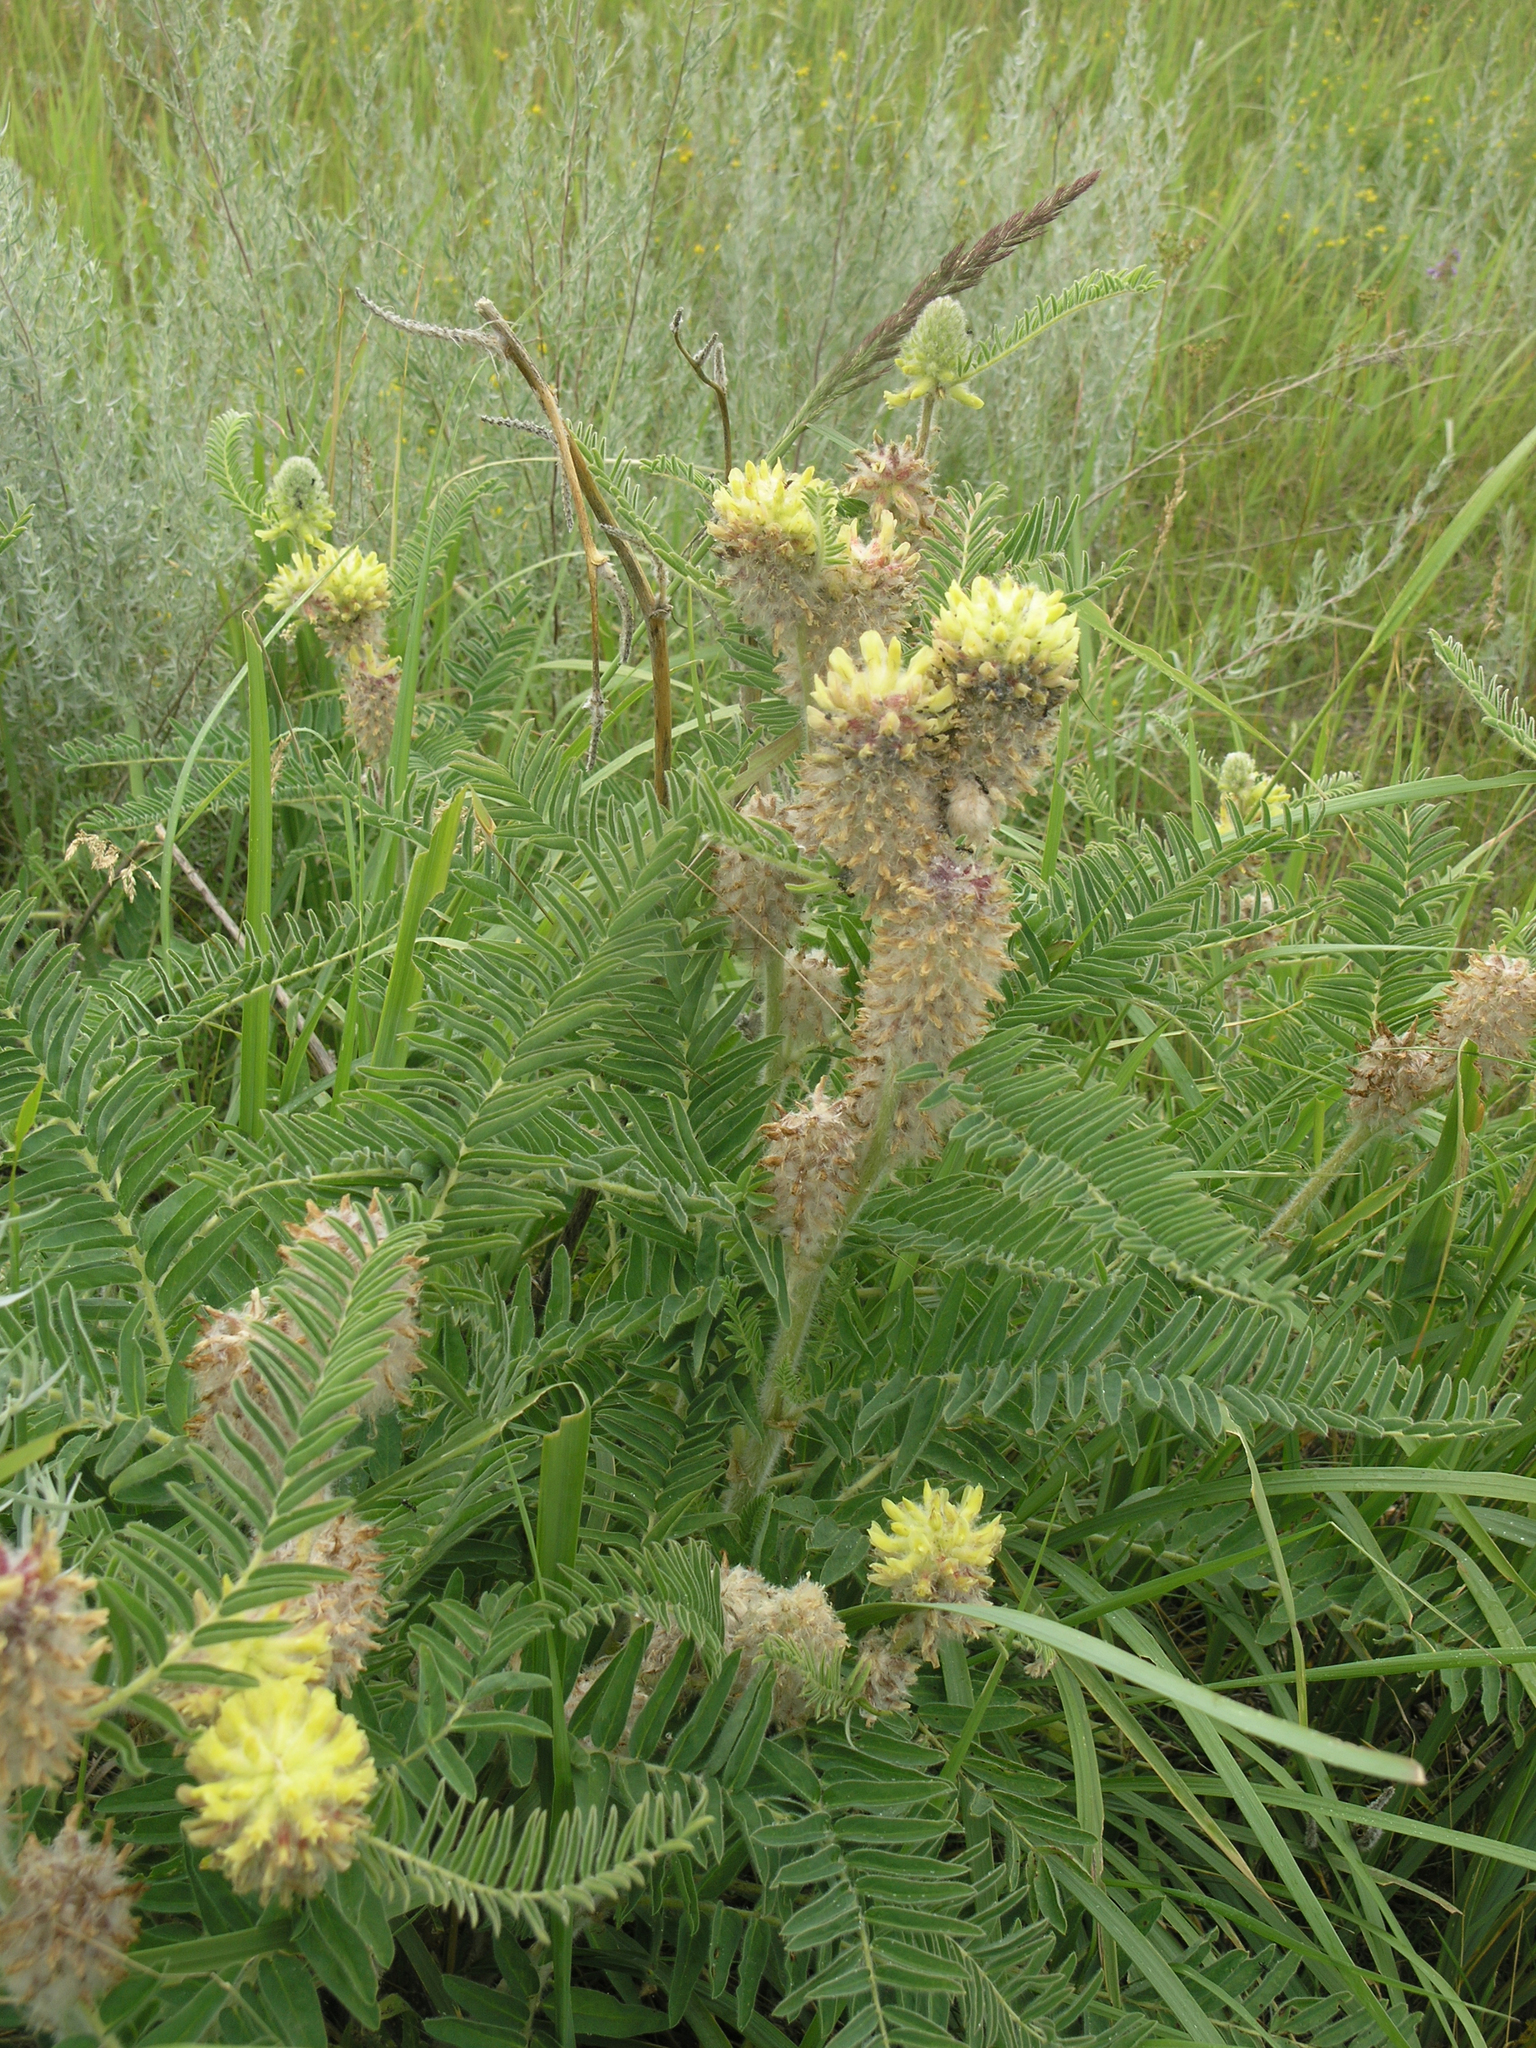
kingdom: Plantae
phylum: Tracheophyta
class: Magnoliopsida
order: Fabales
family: Fabaceae
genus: Astragalus
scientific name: Astragalus alopecurus
